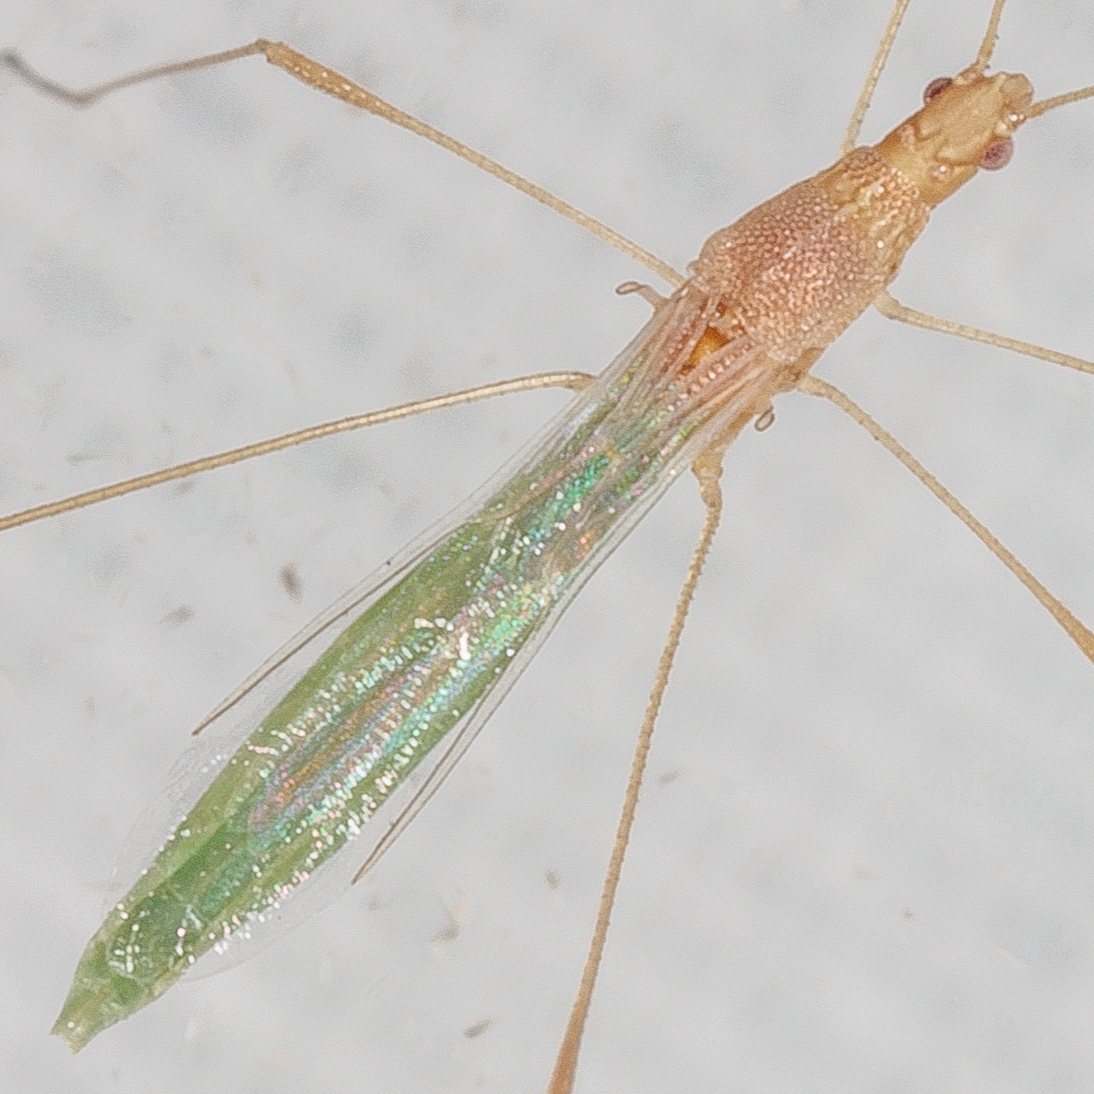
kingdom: Animalia
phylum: Arthropoda
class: Insecta
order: Hemiptera
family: Berytidae
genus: Metacanthus
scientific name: Metacanthus multispinus
